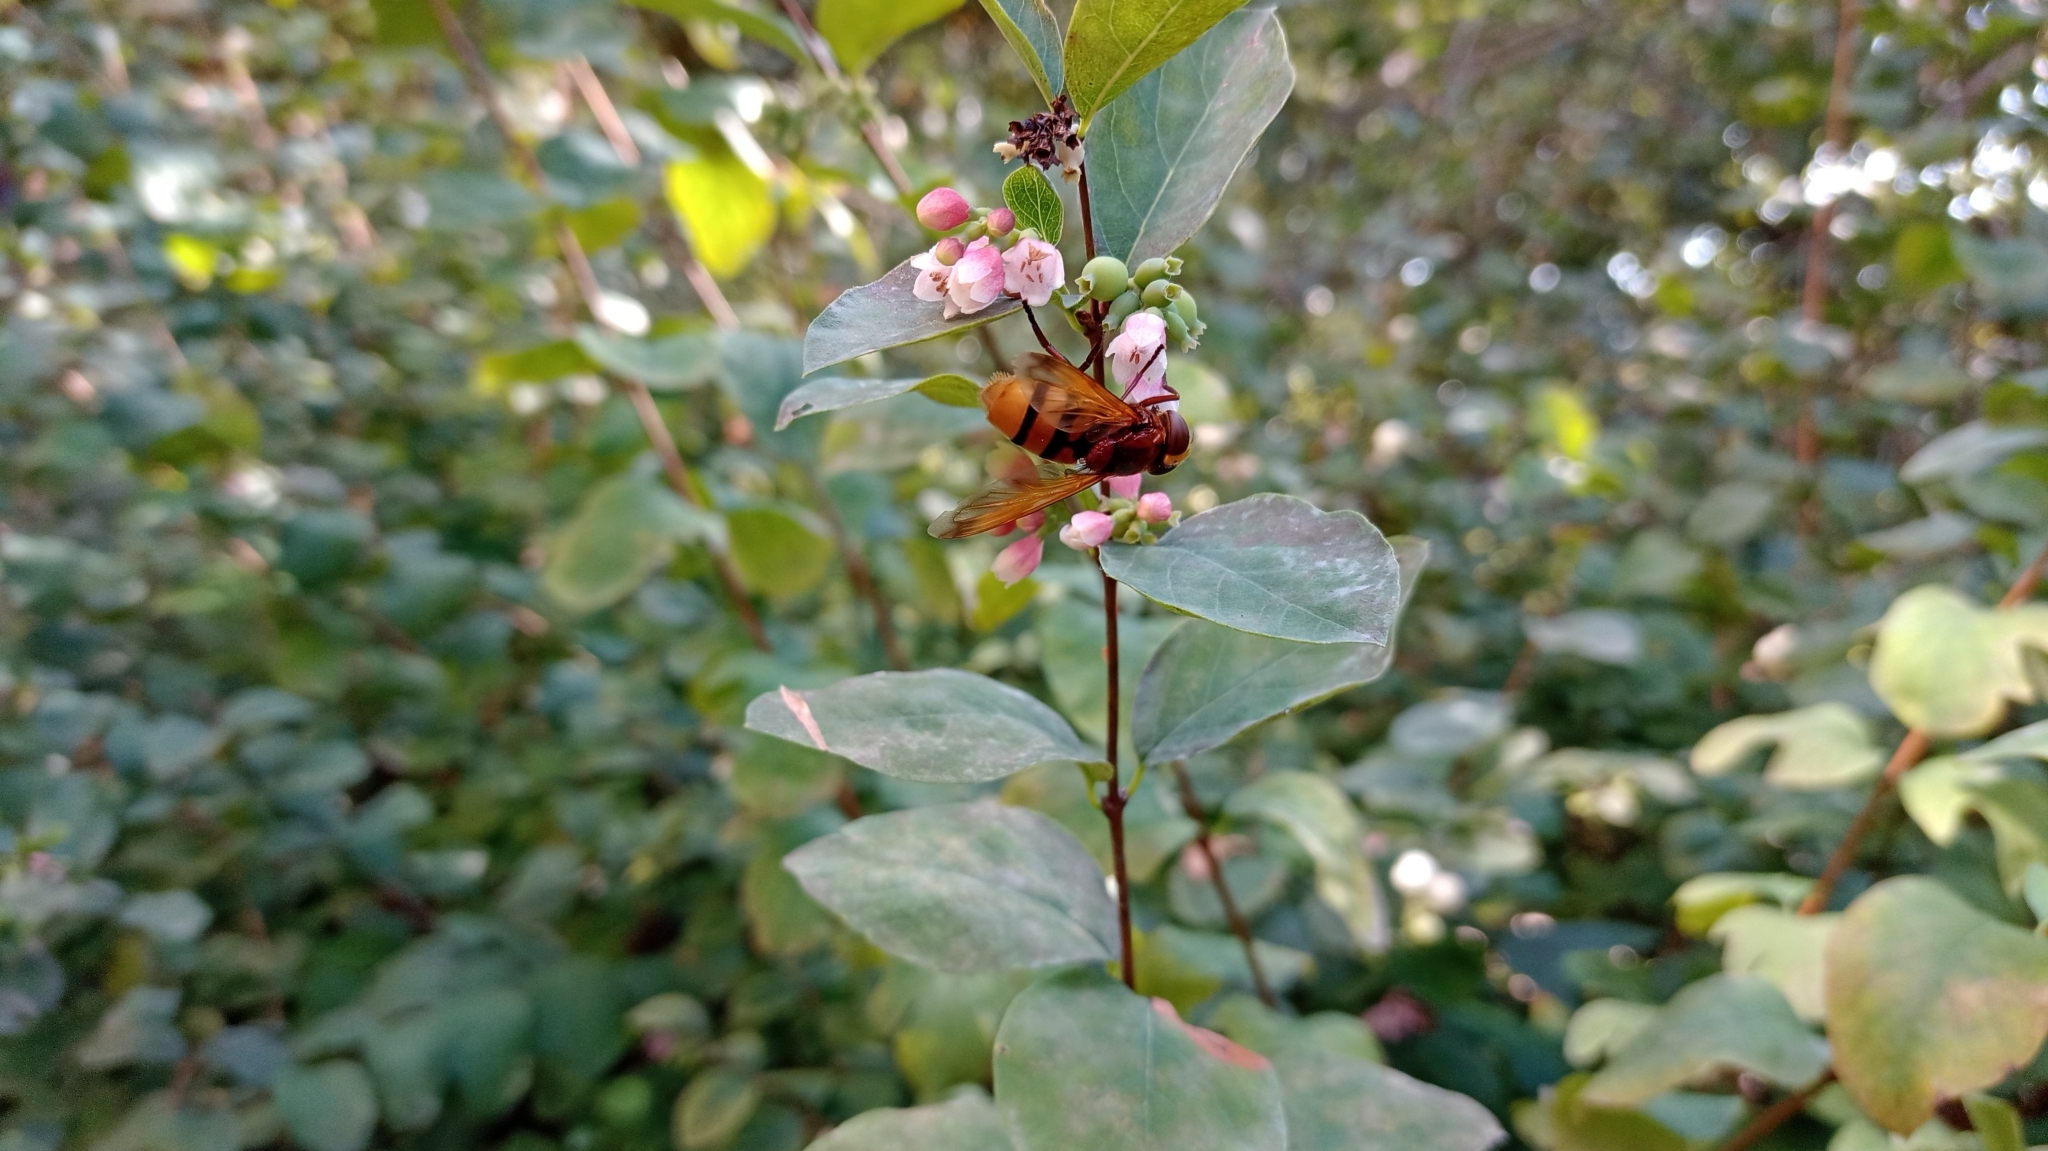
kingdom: Animalia
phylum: Arthropoda
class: Insecta
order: Diptera
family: Syrphidae
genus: Volucella
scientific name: Volucella zonaria
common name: Hornet hoverfly
